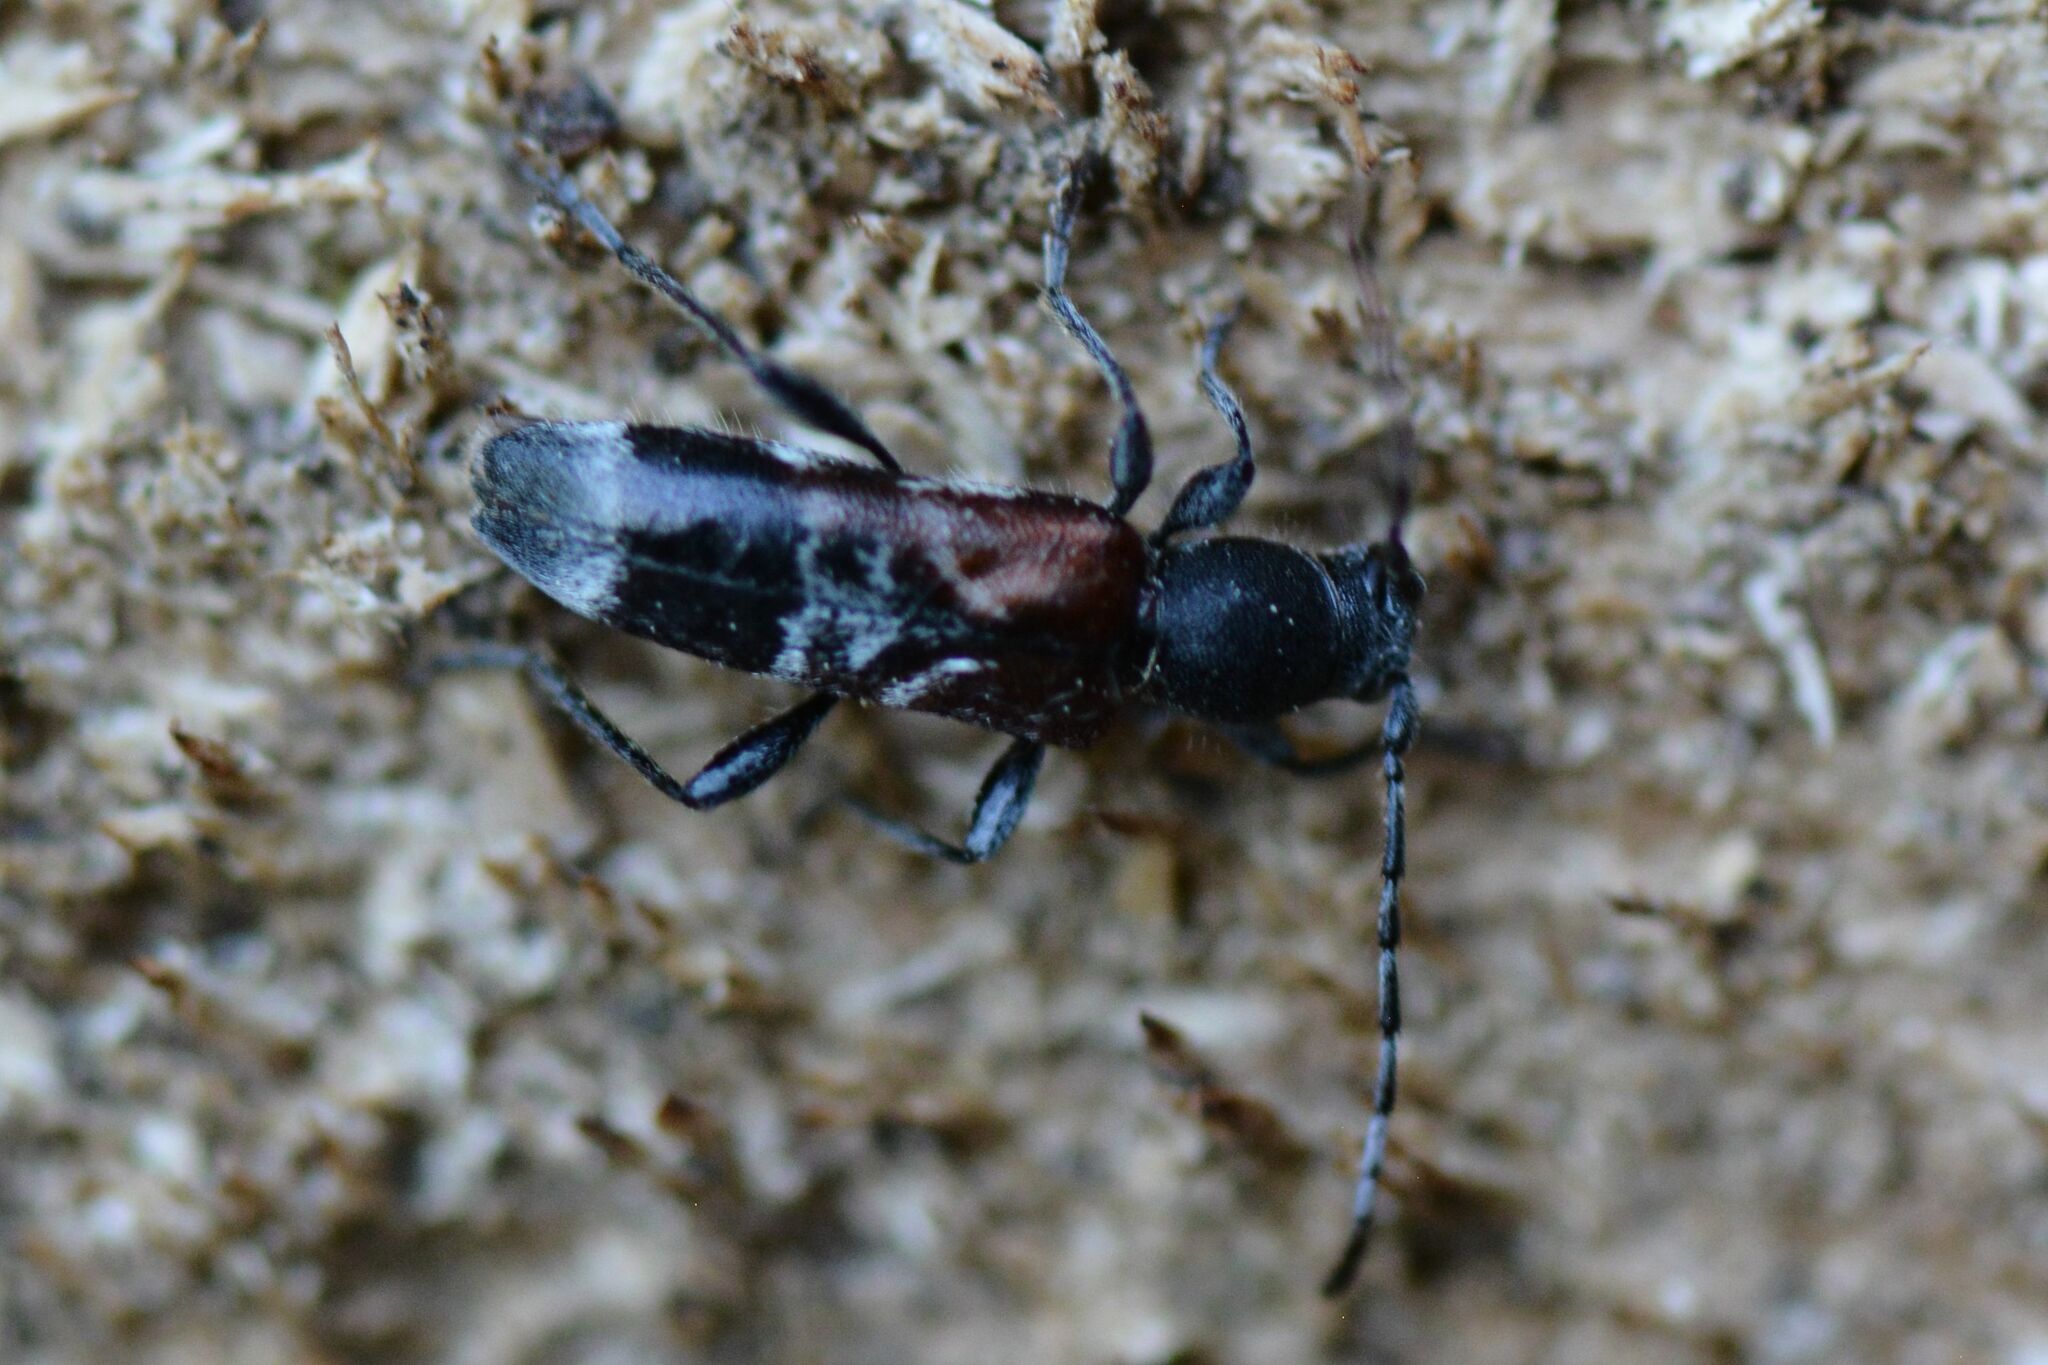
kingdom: Animalia
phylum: Arthropoda
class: Insecta
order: Coleoptera
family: Cerambycidae
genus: Anaglyptus
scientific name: Anaglyptus mysticus
